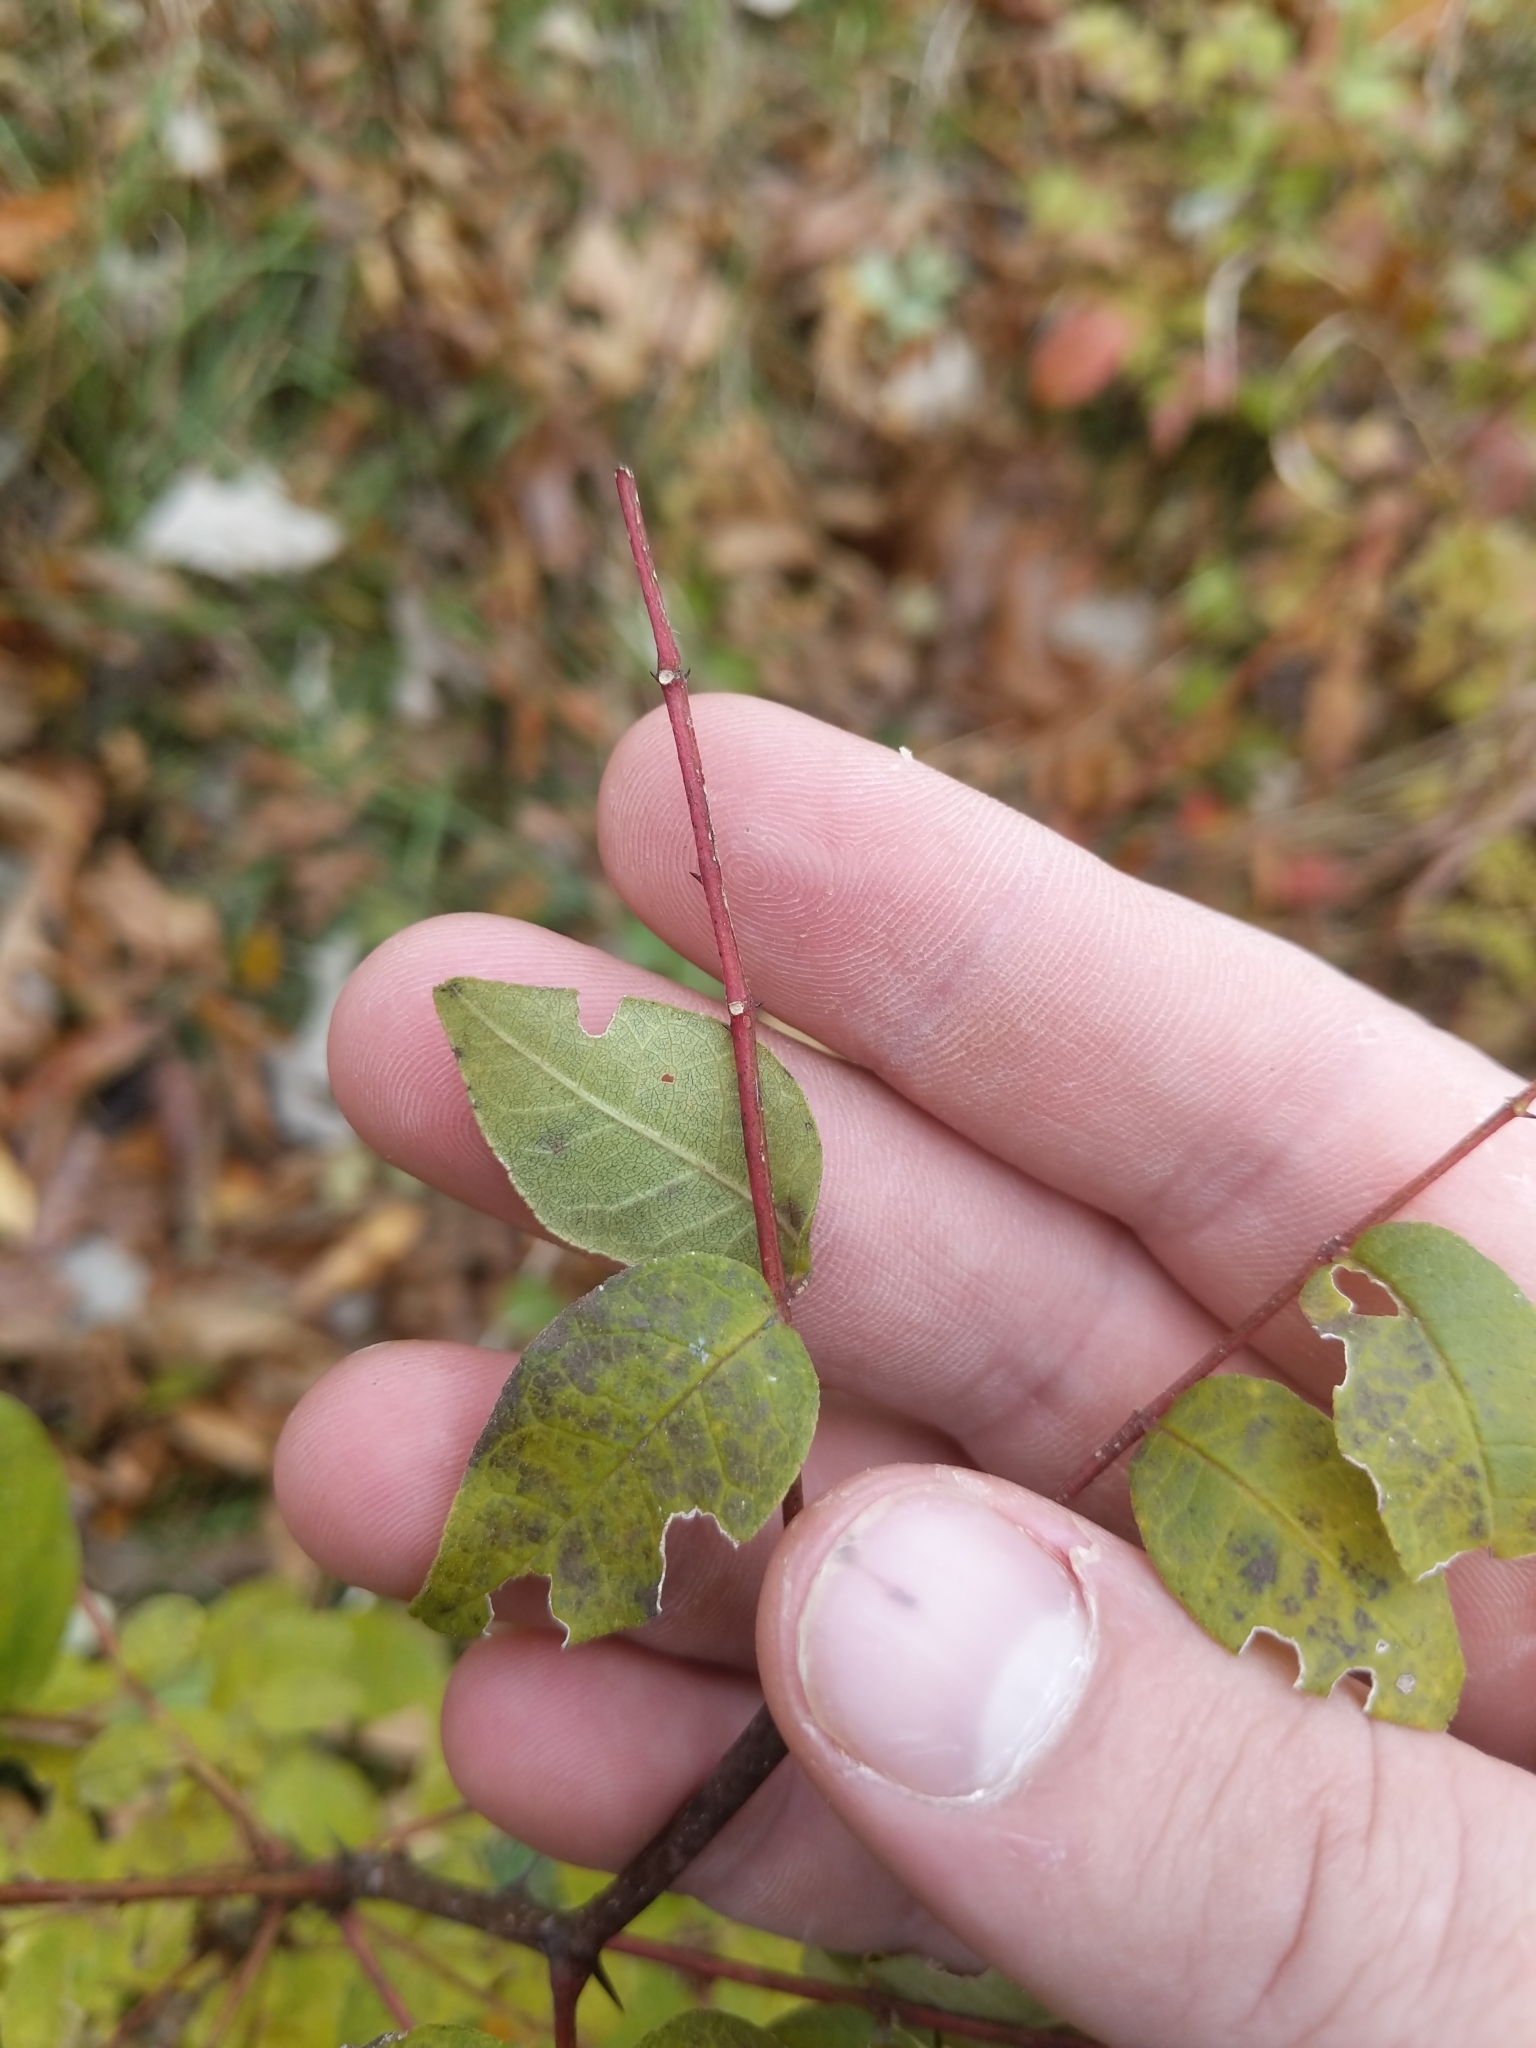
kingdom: Plantae
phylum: Tracheophyta
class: Magnoliopsida
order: Sapindales
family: Rutaceae
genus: Zanthoxylum
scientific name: Zanthoxylum americanum
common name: Northern prickly-ash
